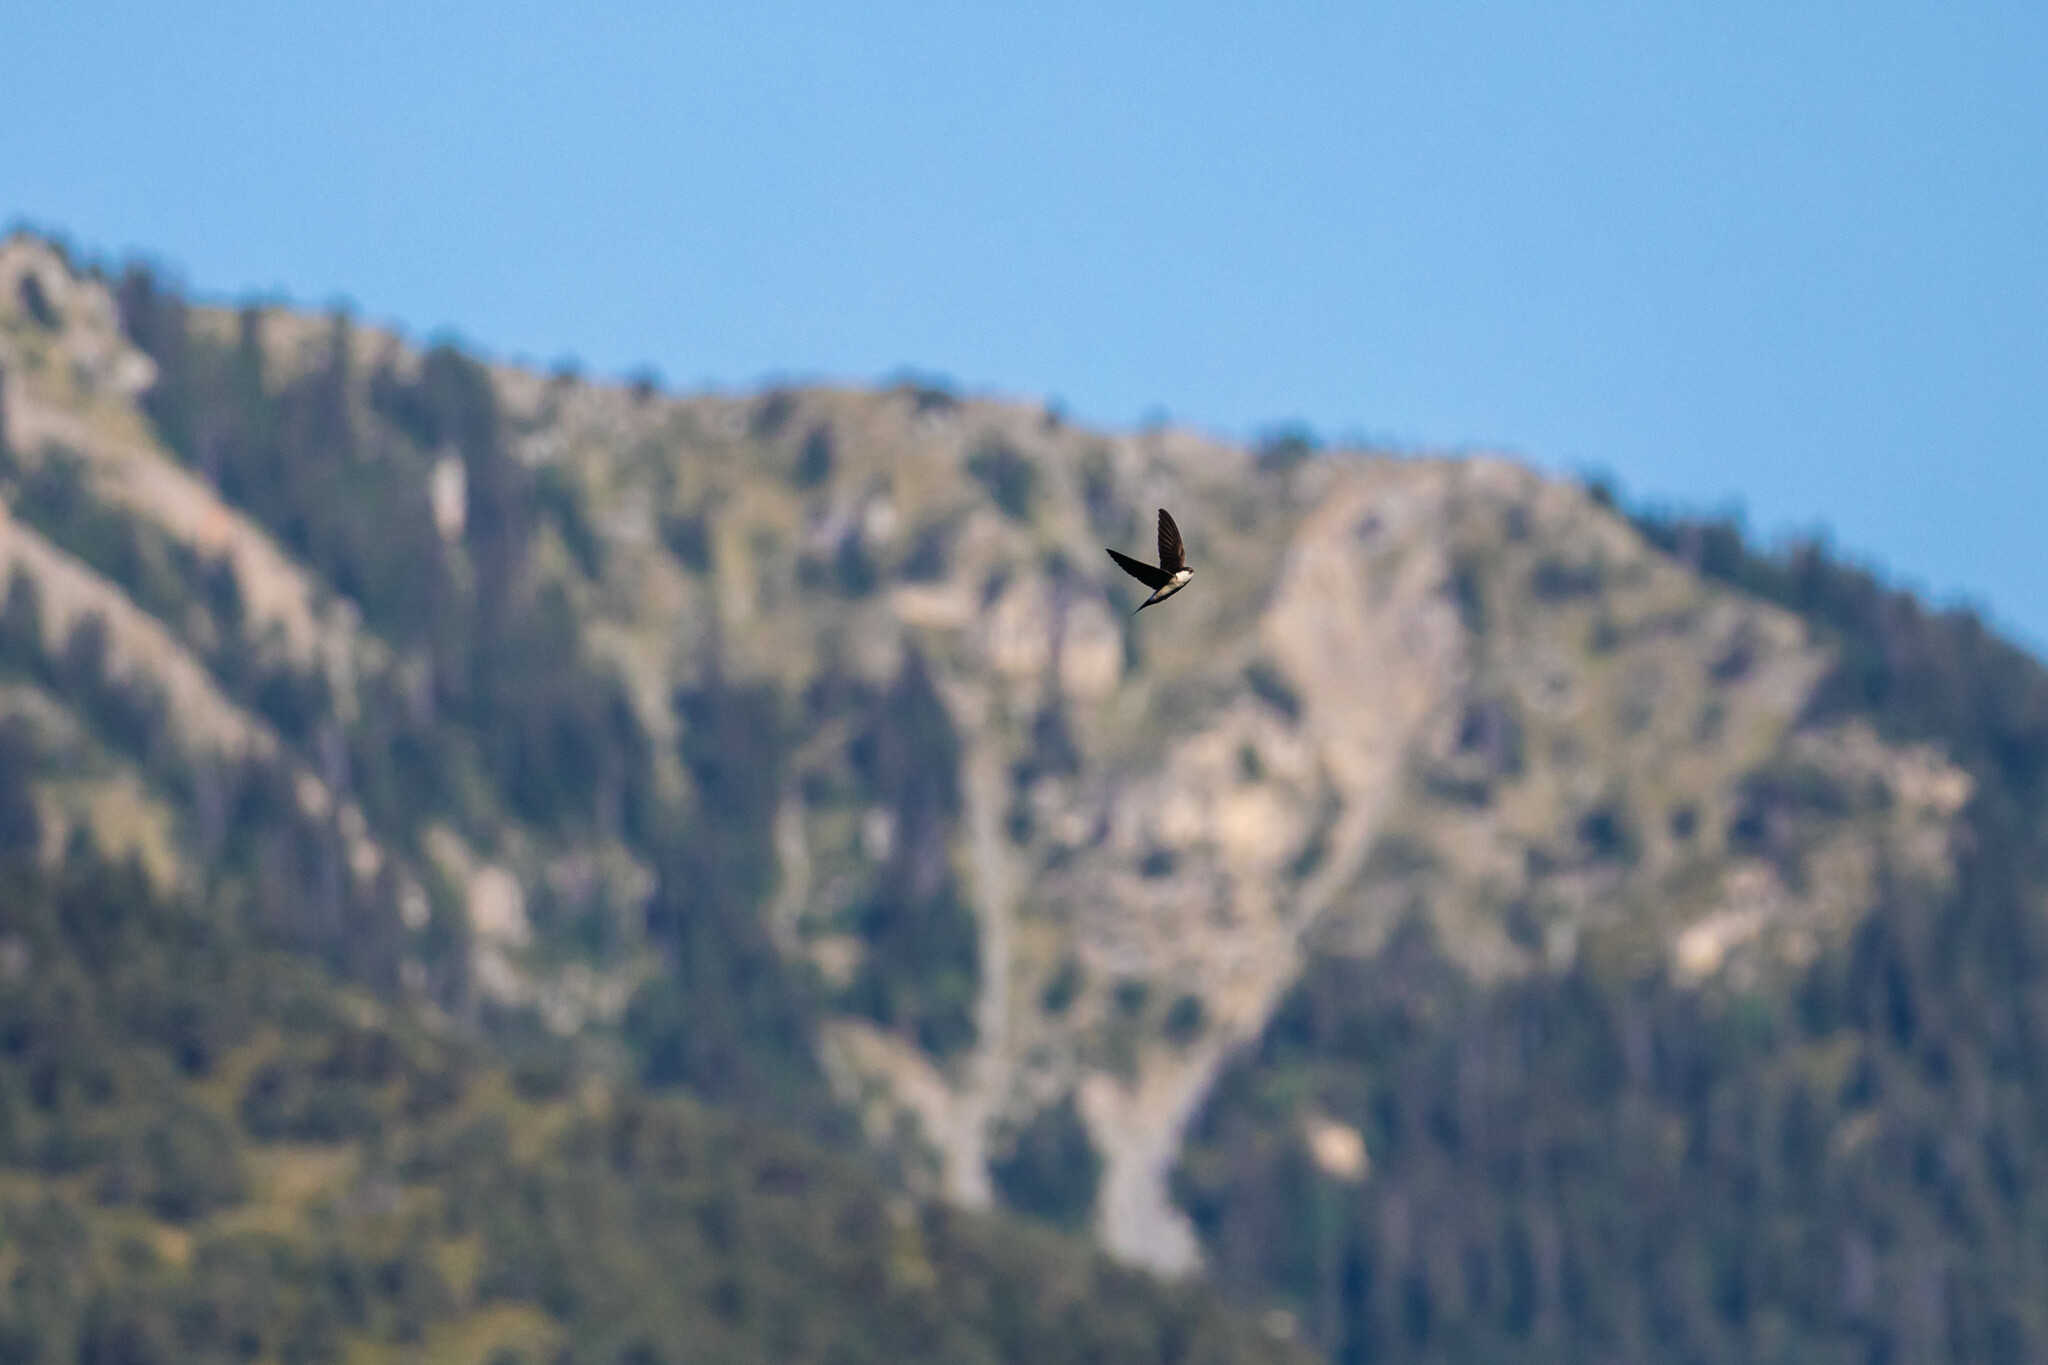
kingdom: Animalia
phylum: Chordata
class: Aves
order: Passeriformes
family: Hirundinidae
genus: Delichon
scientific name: Delichon urbicum
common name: Common house martin
